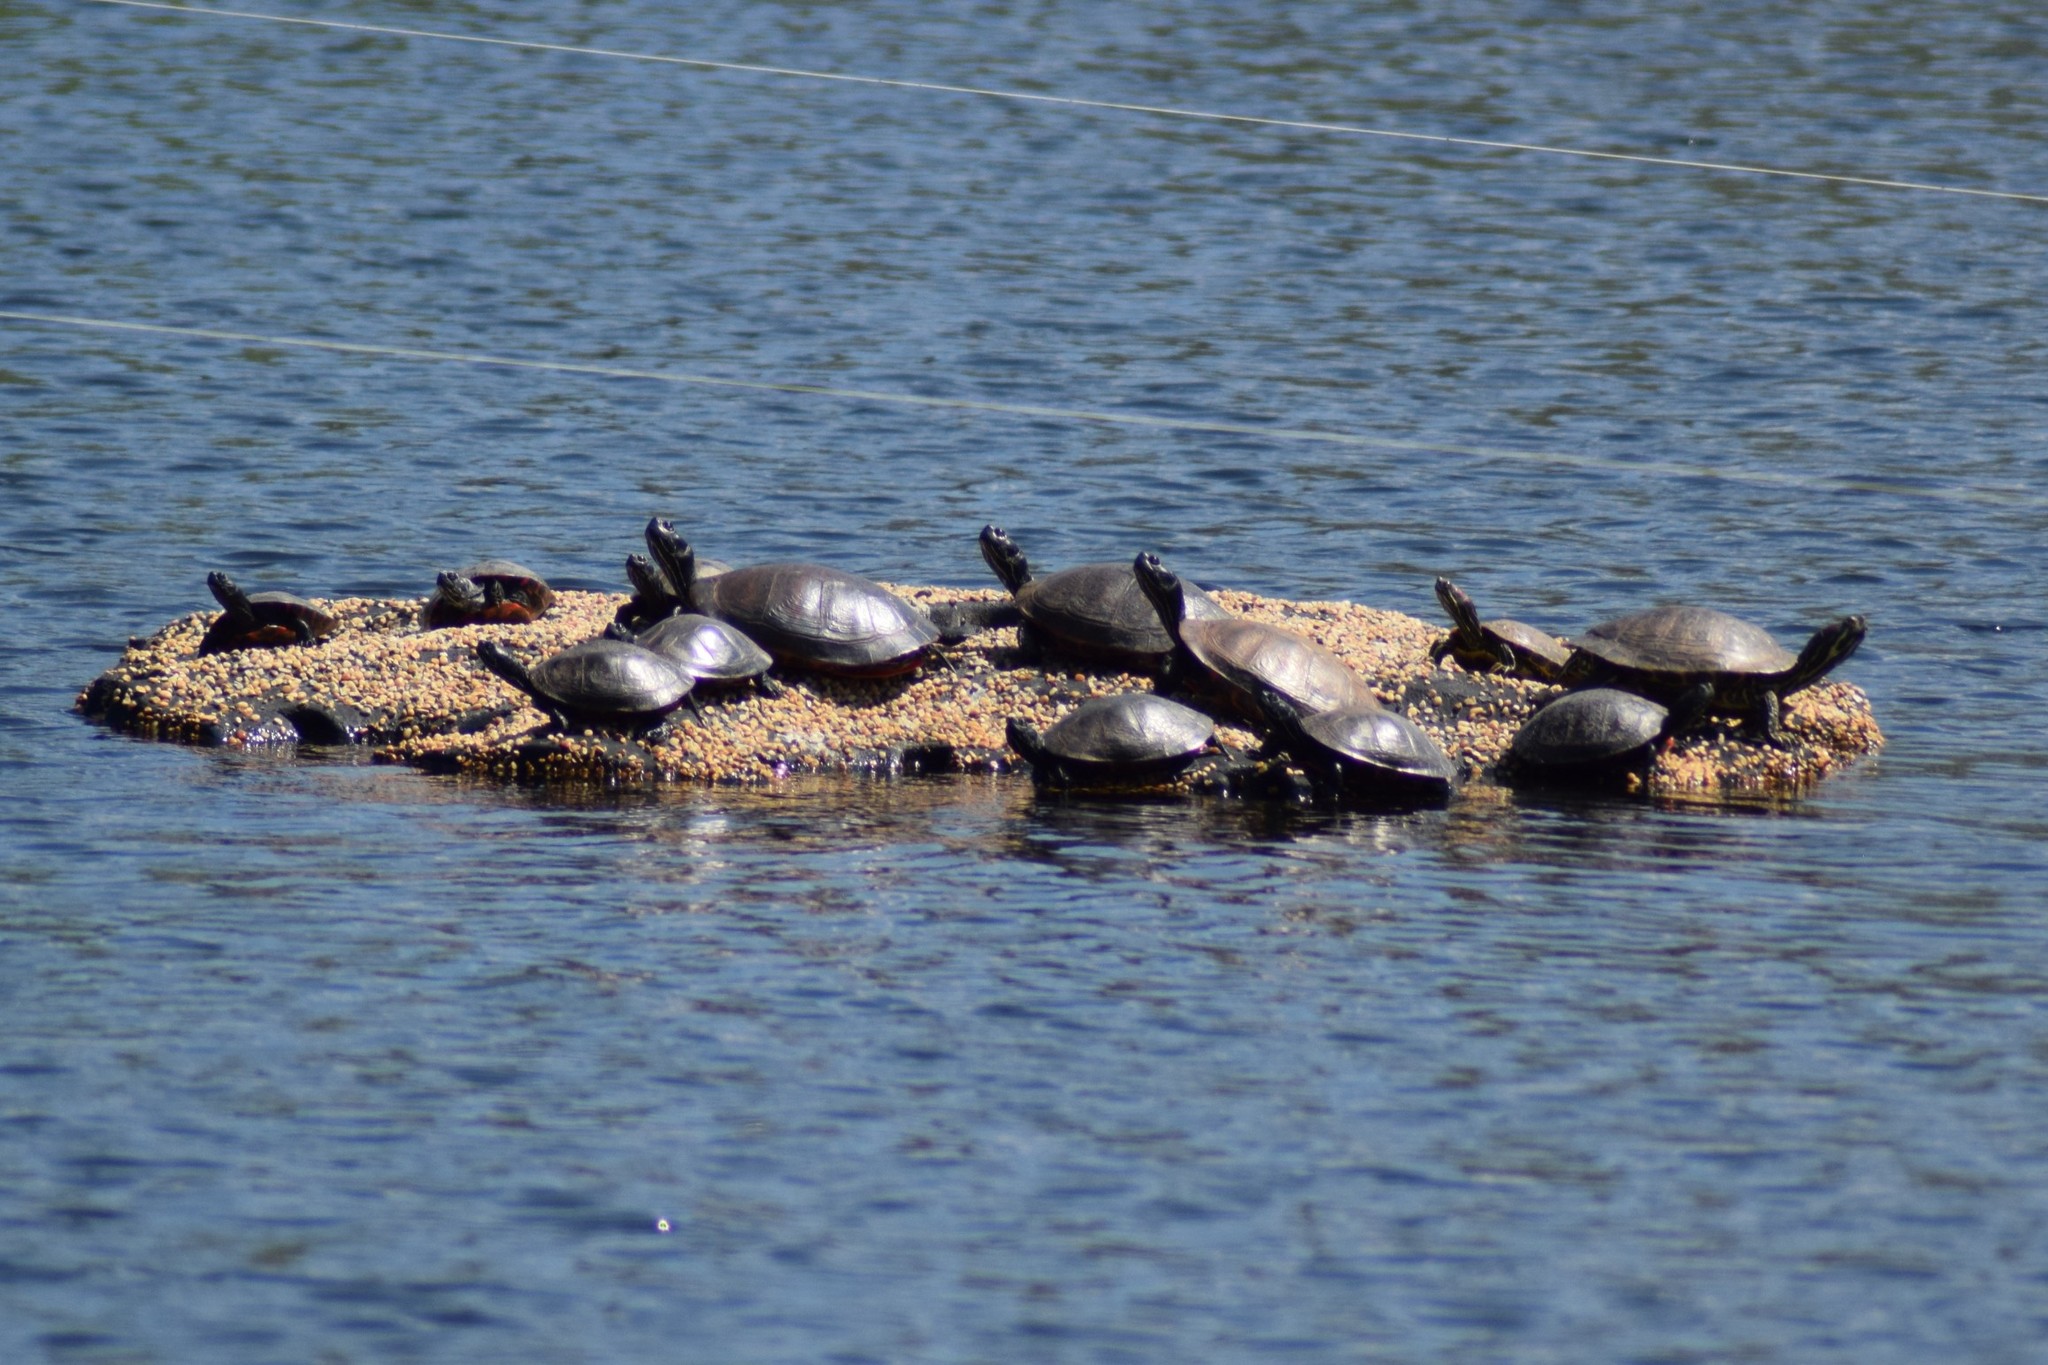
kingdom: Animalia
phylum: Chordata
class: Testudines
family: Emydidae
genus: Pseudemys
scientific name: Pseudemys rubriventris
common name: American red-bellied turtle
